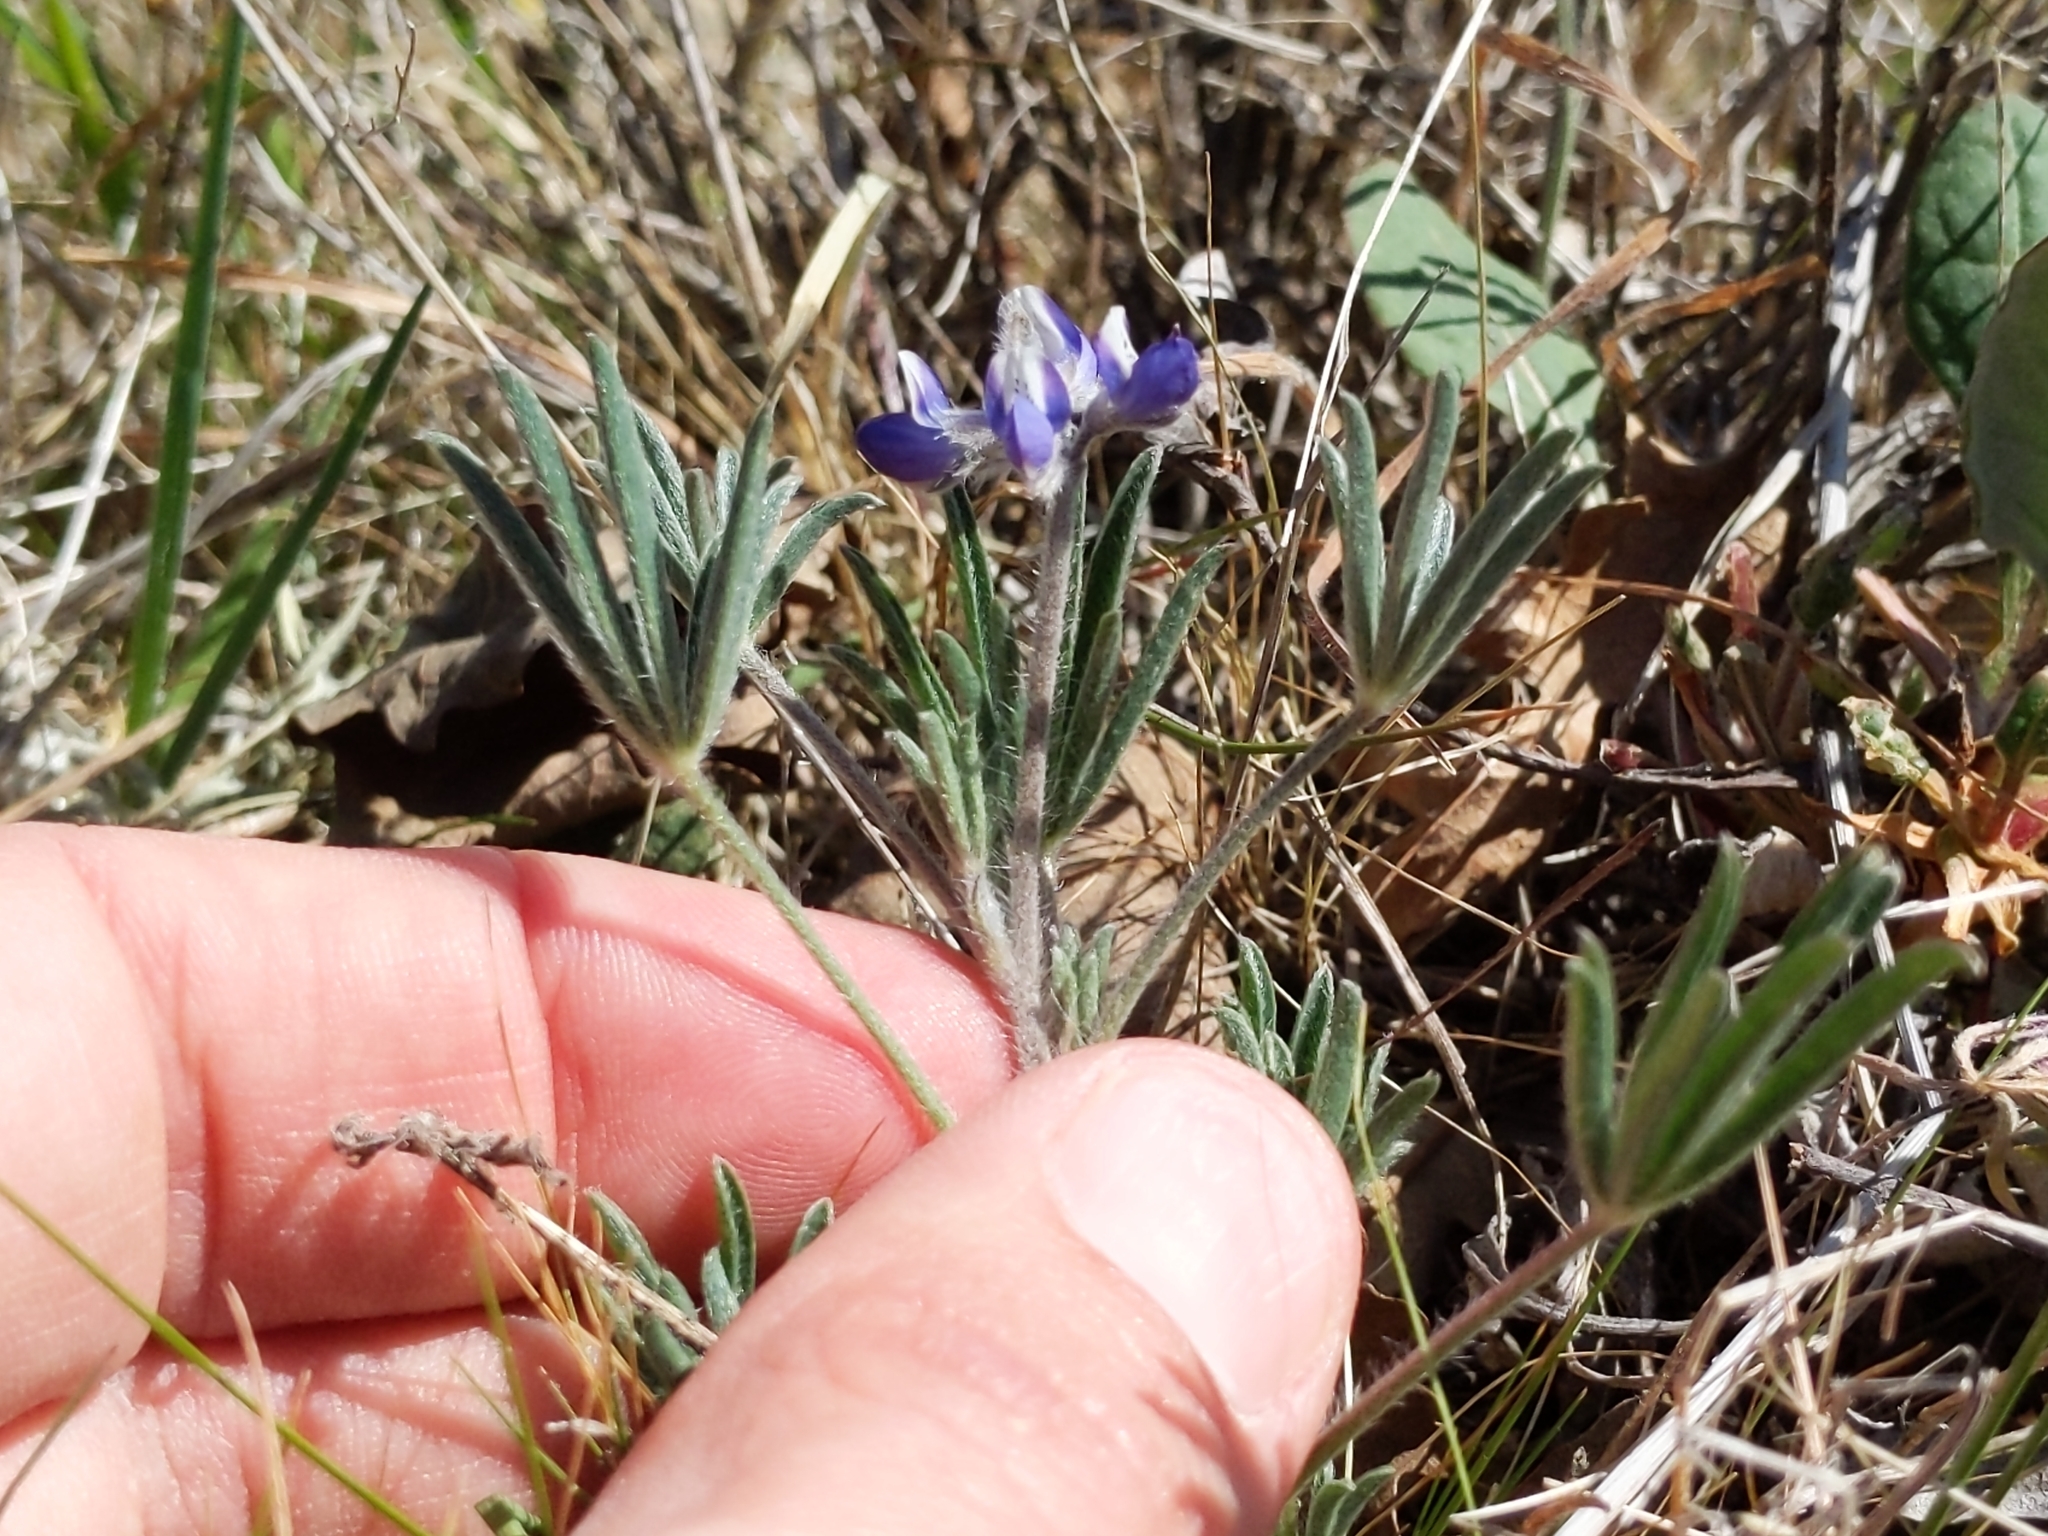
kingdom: Plantae
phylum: Tracheophyta
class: Magnoliopsida
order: Fabales
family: Fabaceae
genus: Lupinus
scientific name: Lupinus bicolor
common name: Miniature lupine
